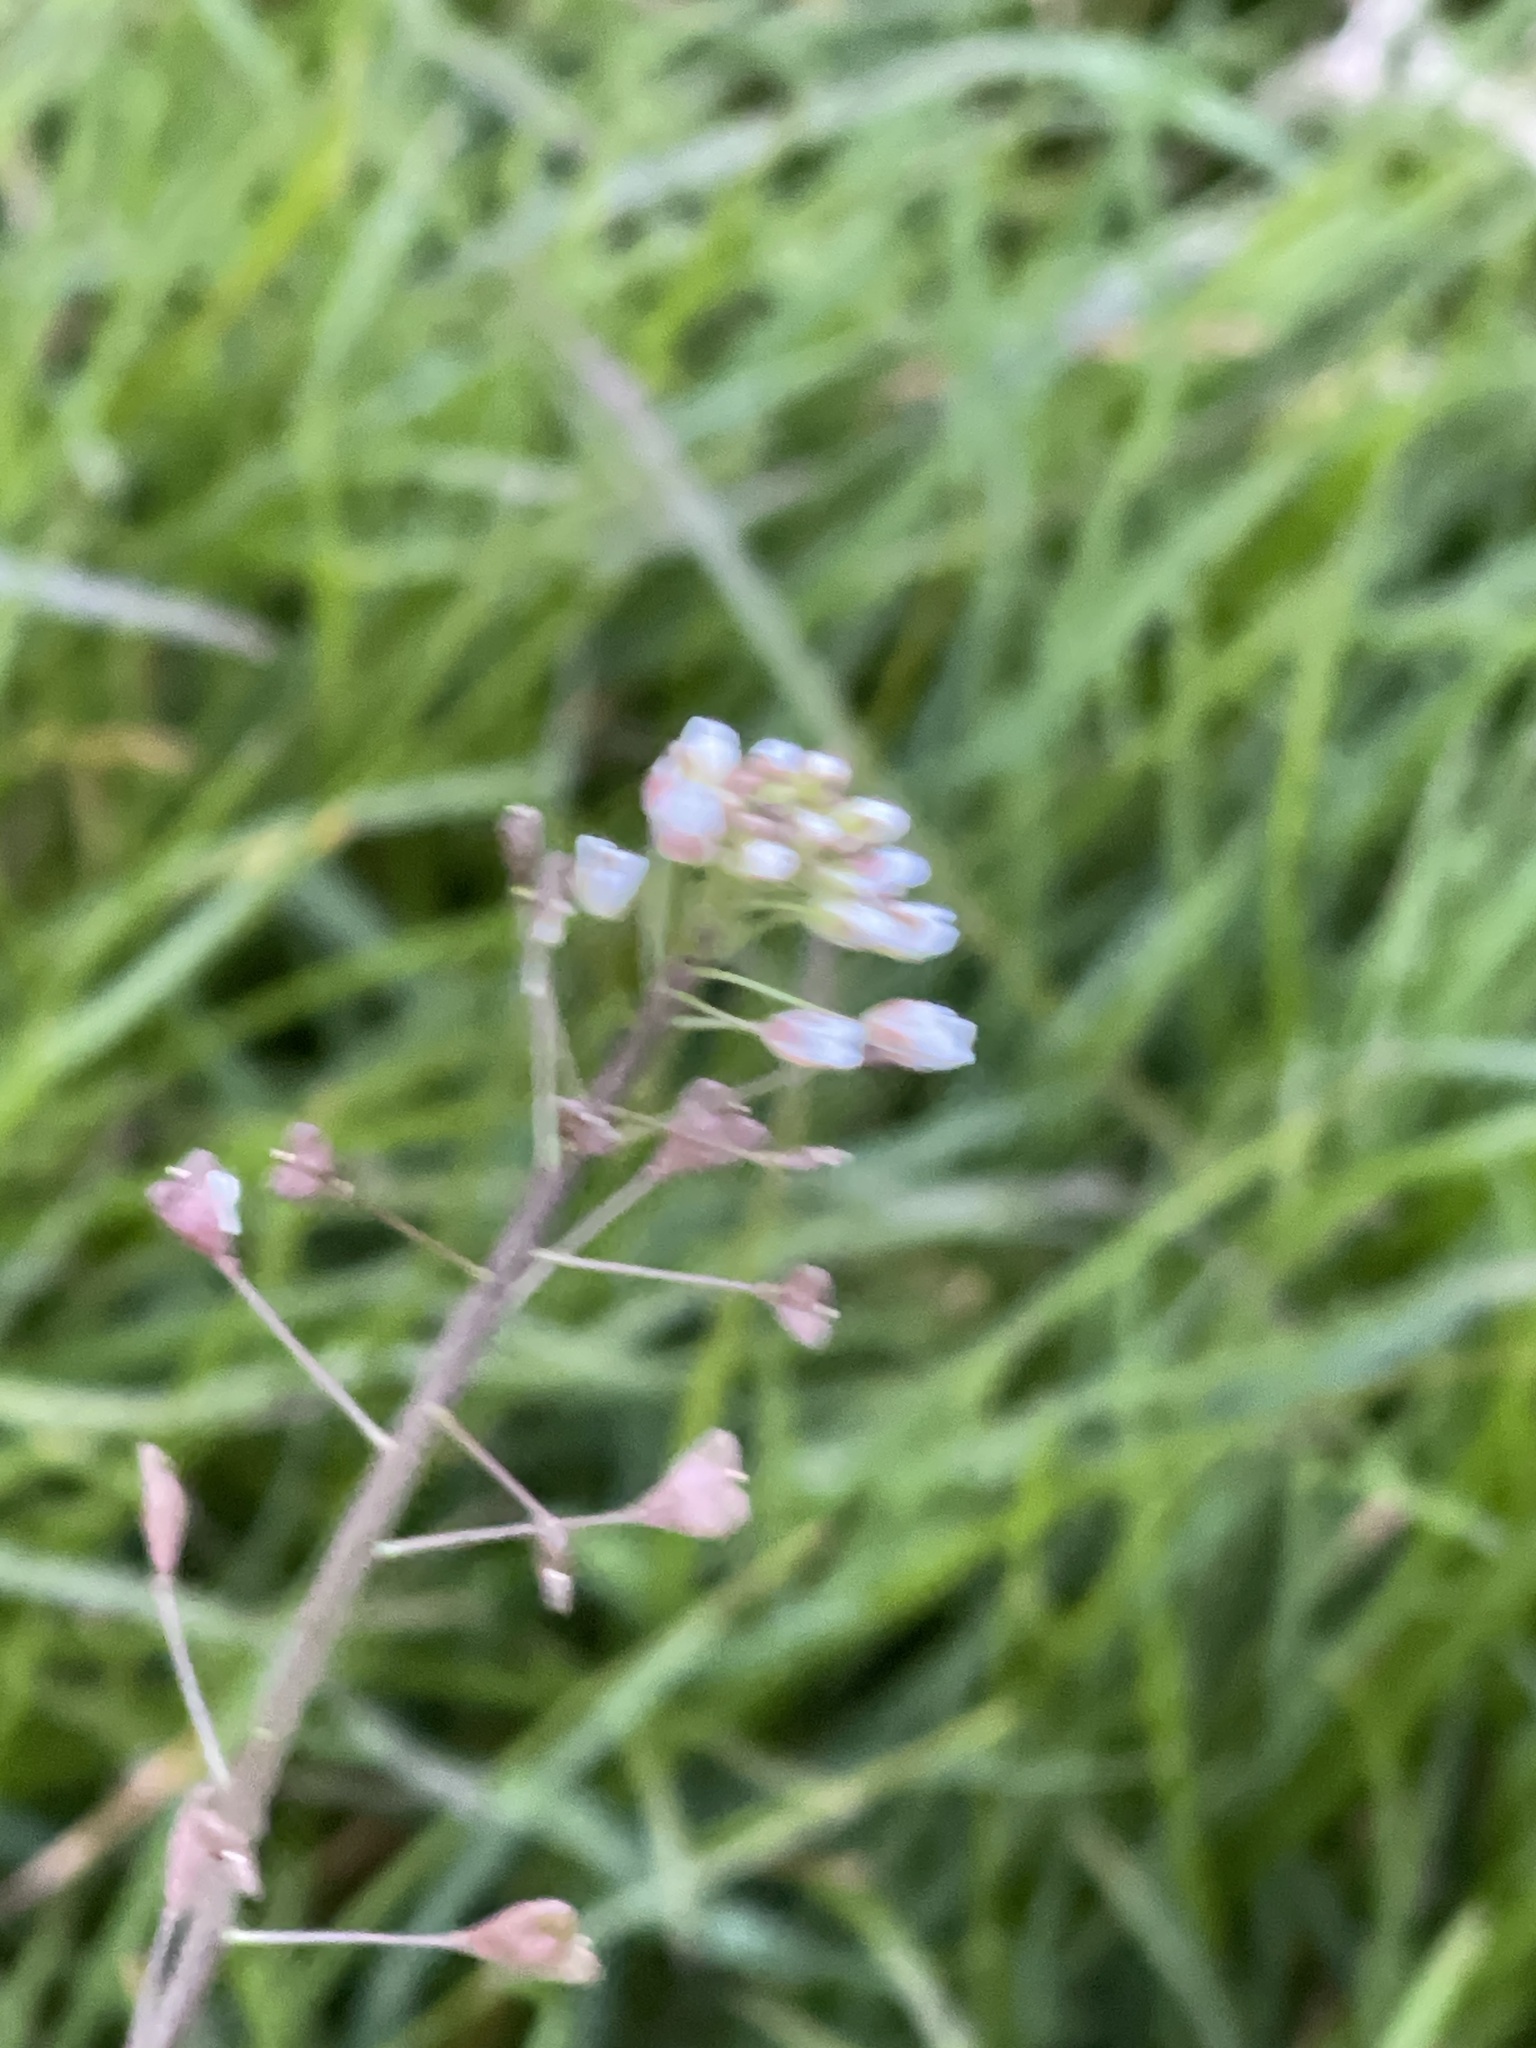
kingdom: Plantae
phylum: Tracheophyta
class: Magnoliopsida
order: Brassicales
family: Brassicaceae
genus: Capsella
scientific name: Capsella bursa-pastoris
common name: Shepherd's purse
